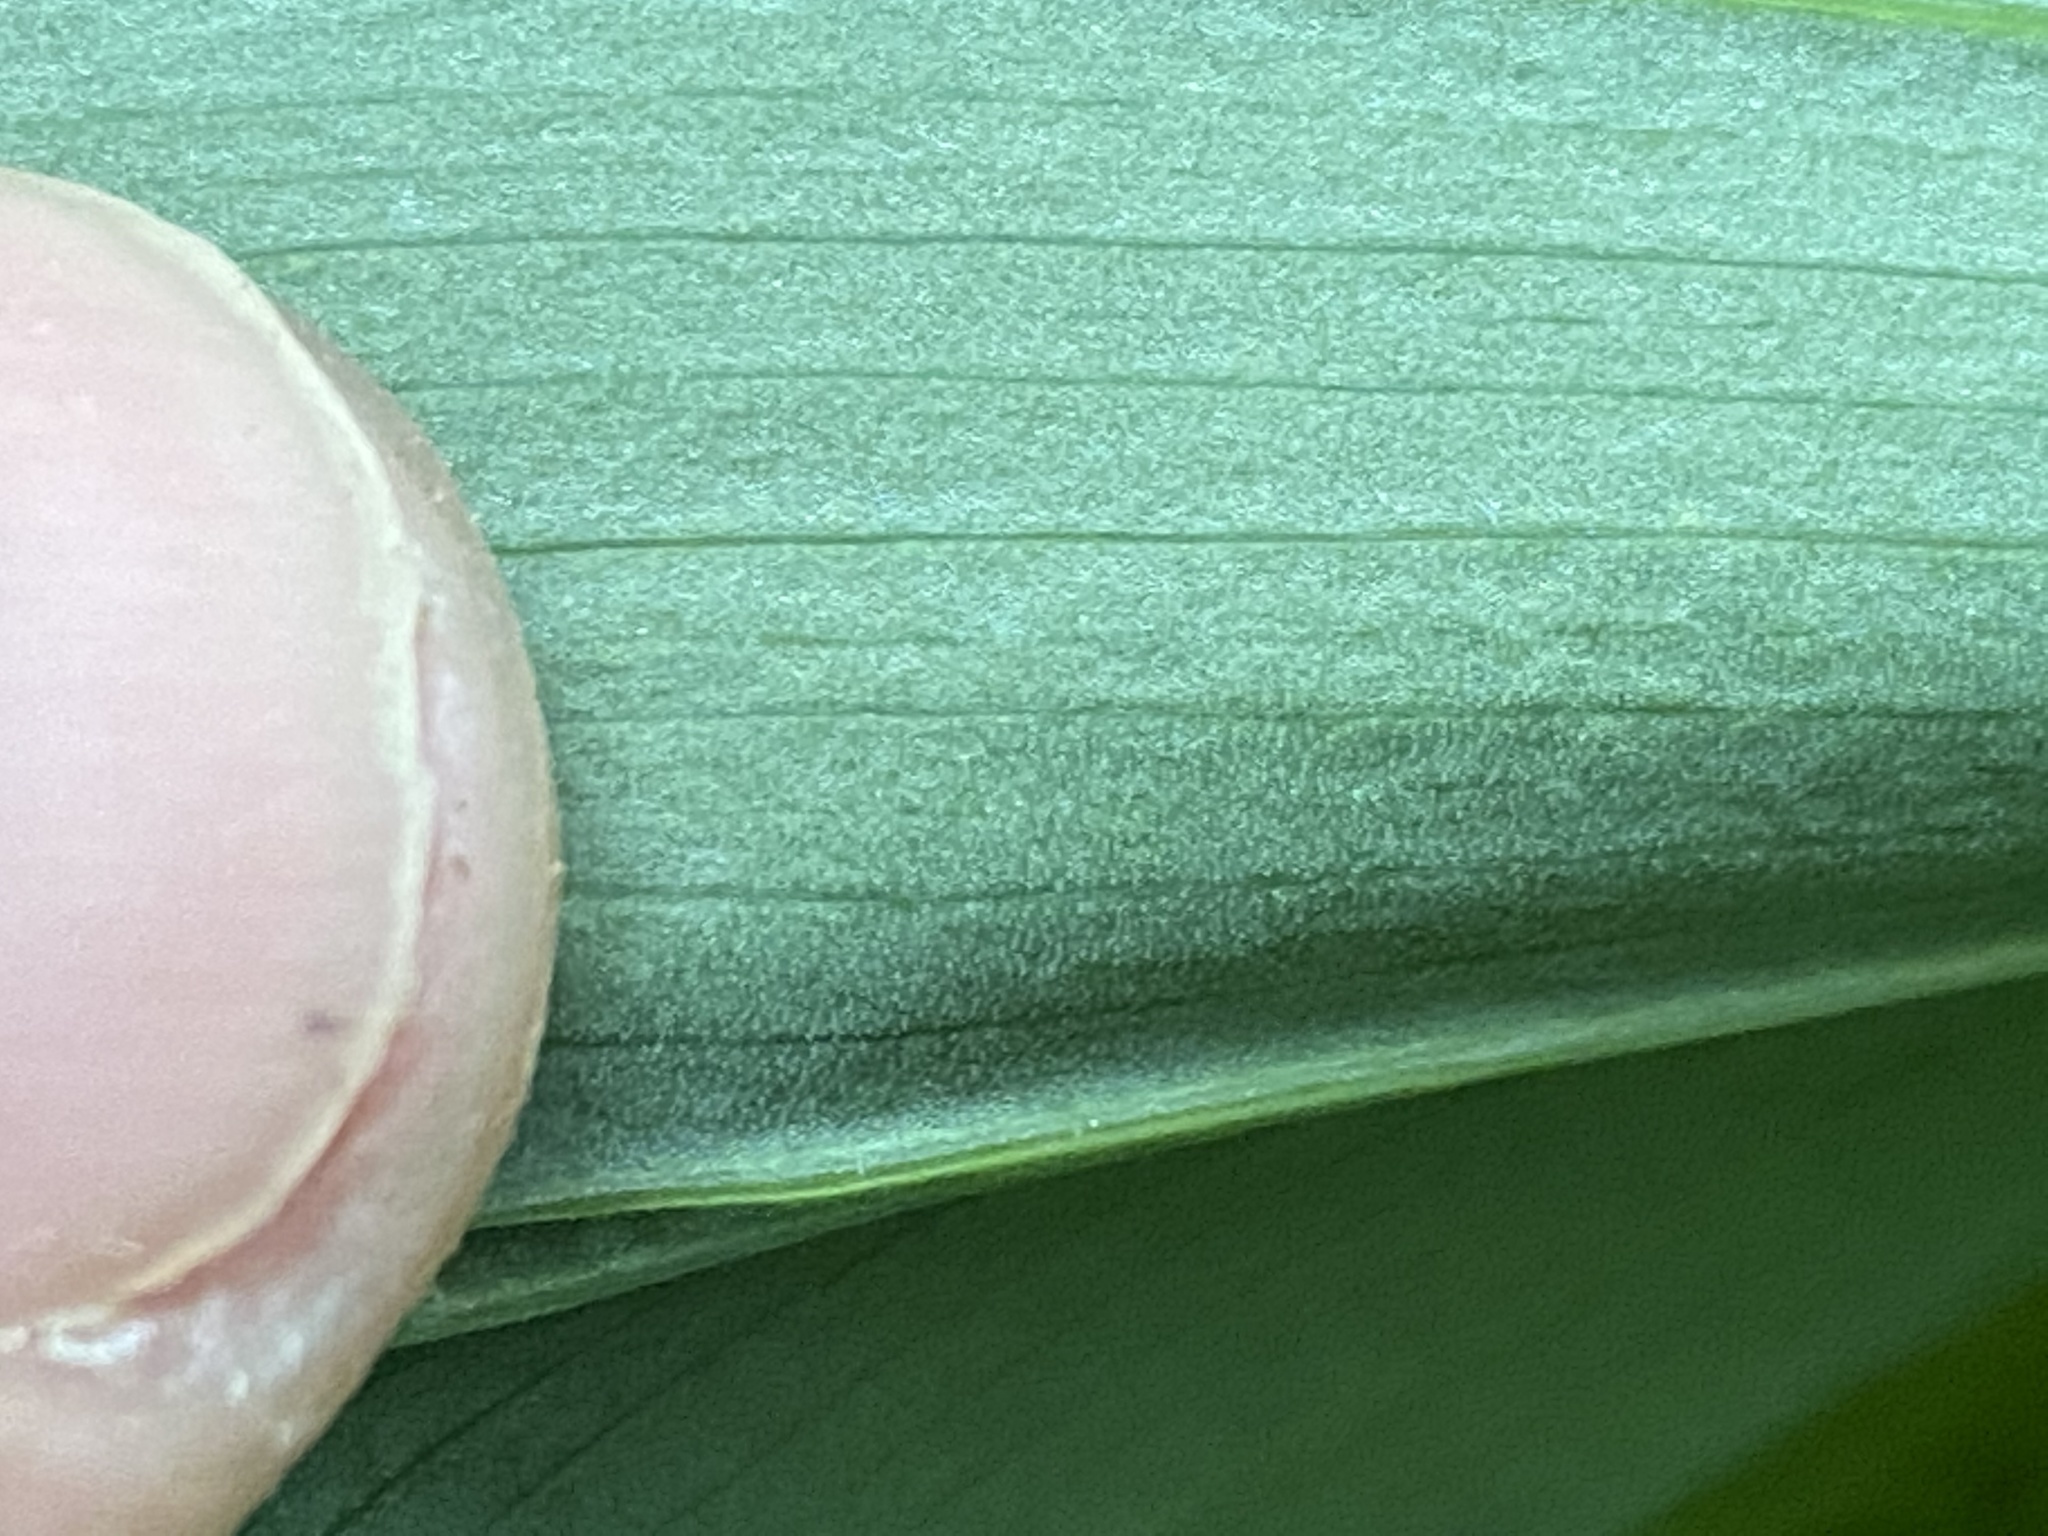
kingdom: Plantae
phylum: Tracheophyta
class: Liliopsida
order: Asparagales
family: Asparagaceae
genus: Polygonatum
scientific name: Polygonatum biflorum
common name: American solomon's-seal
